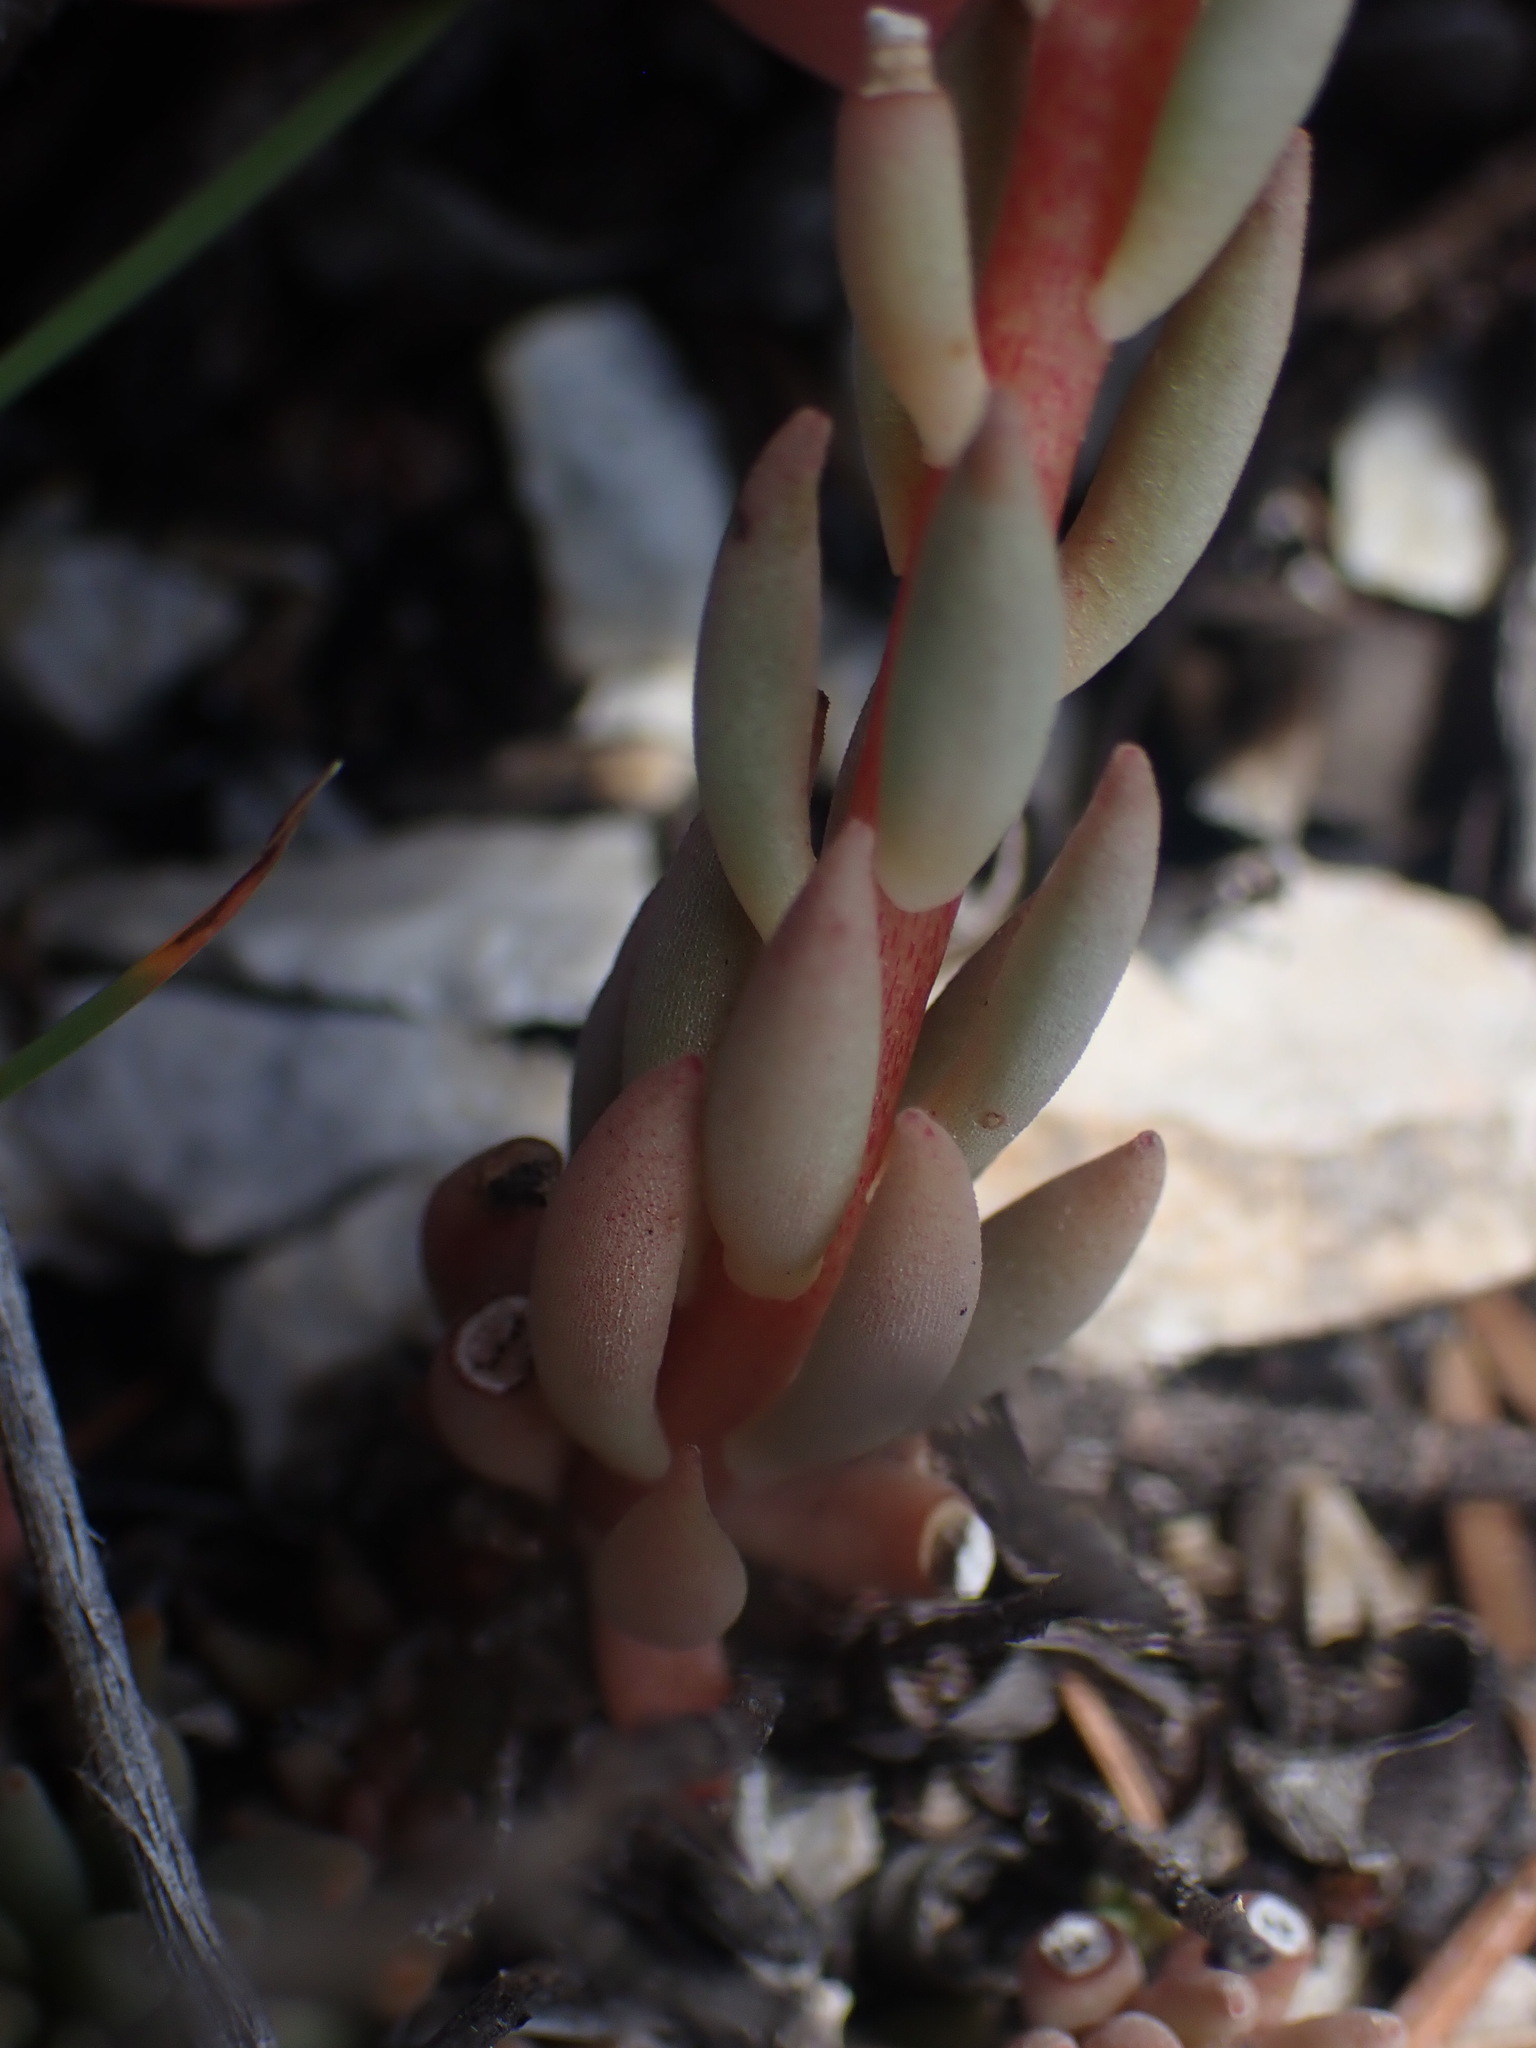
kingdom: Plantae
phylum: Tracheophyta
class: Magnoliopsida
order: Saxifragales
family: Crassulaceae
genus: Sedum
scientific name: Sedum lanceolatum
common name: Common stonecrop
